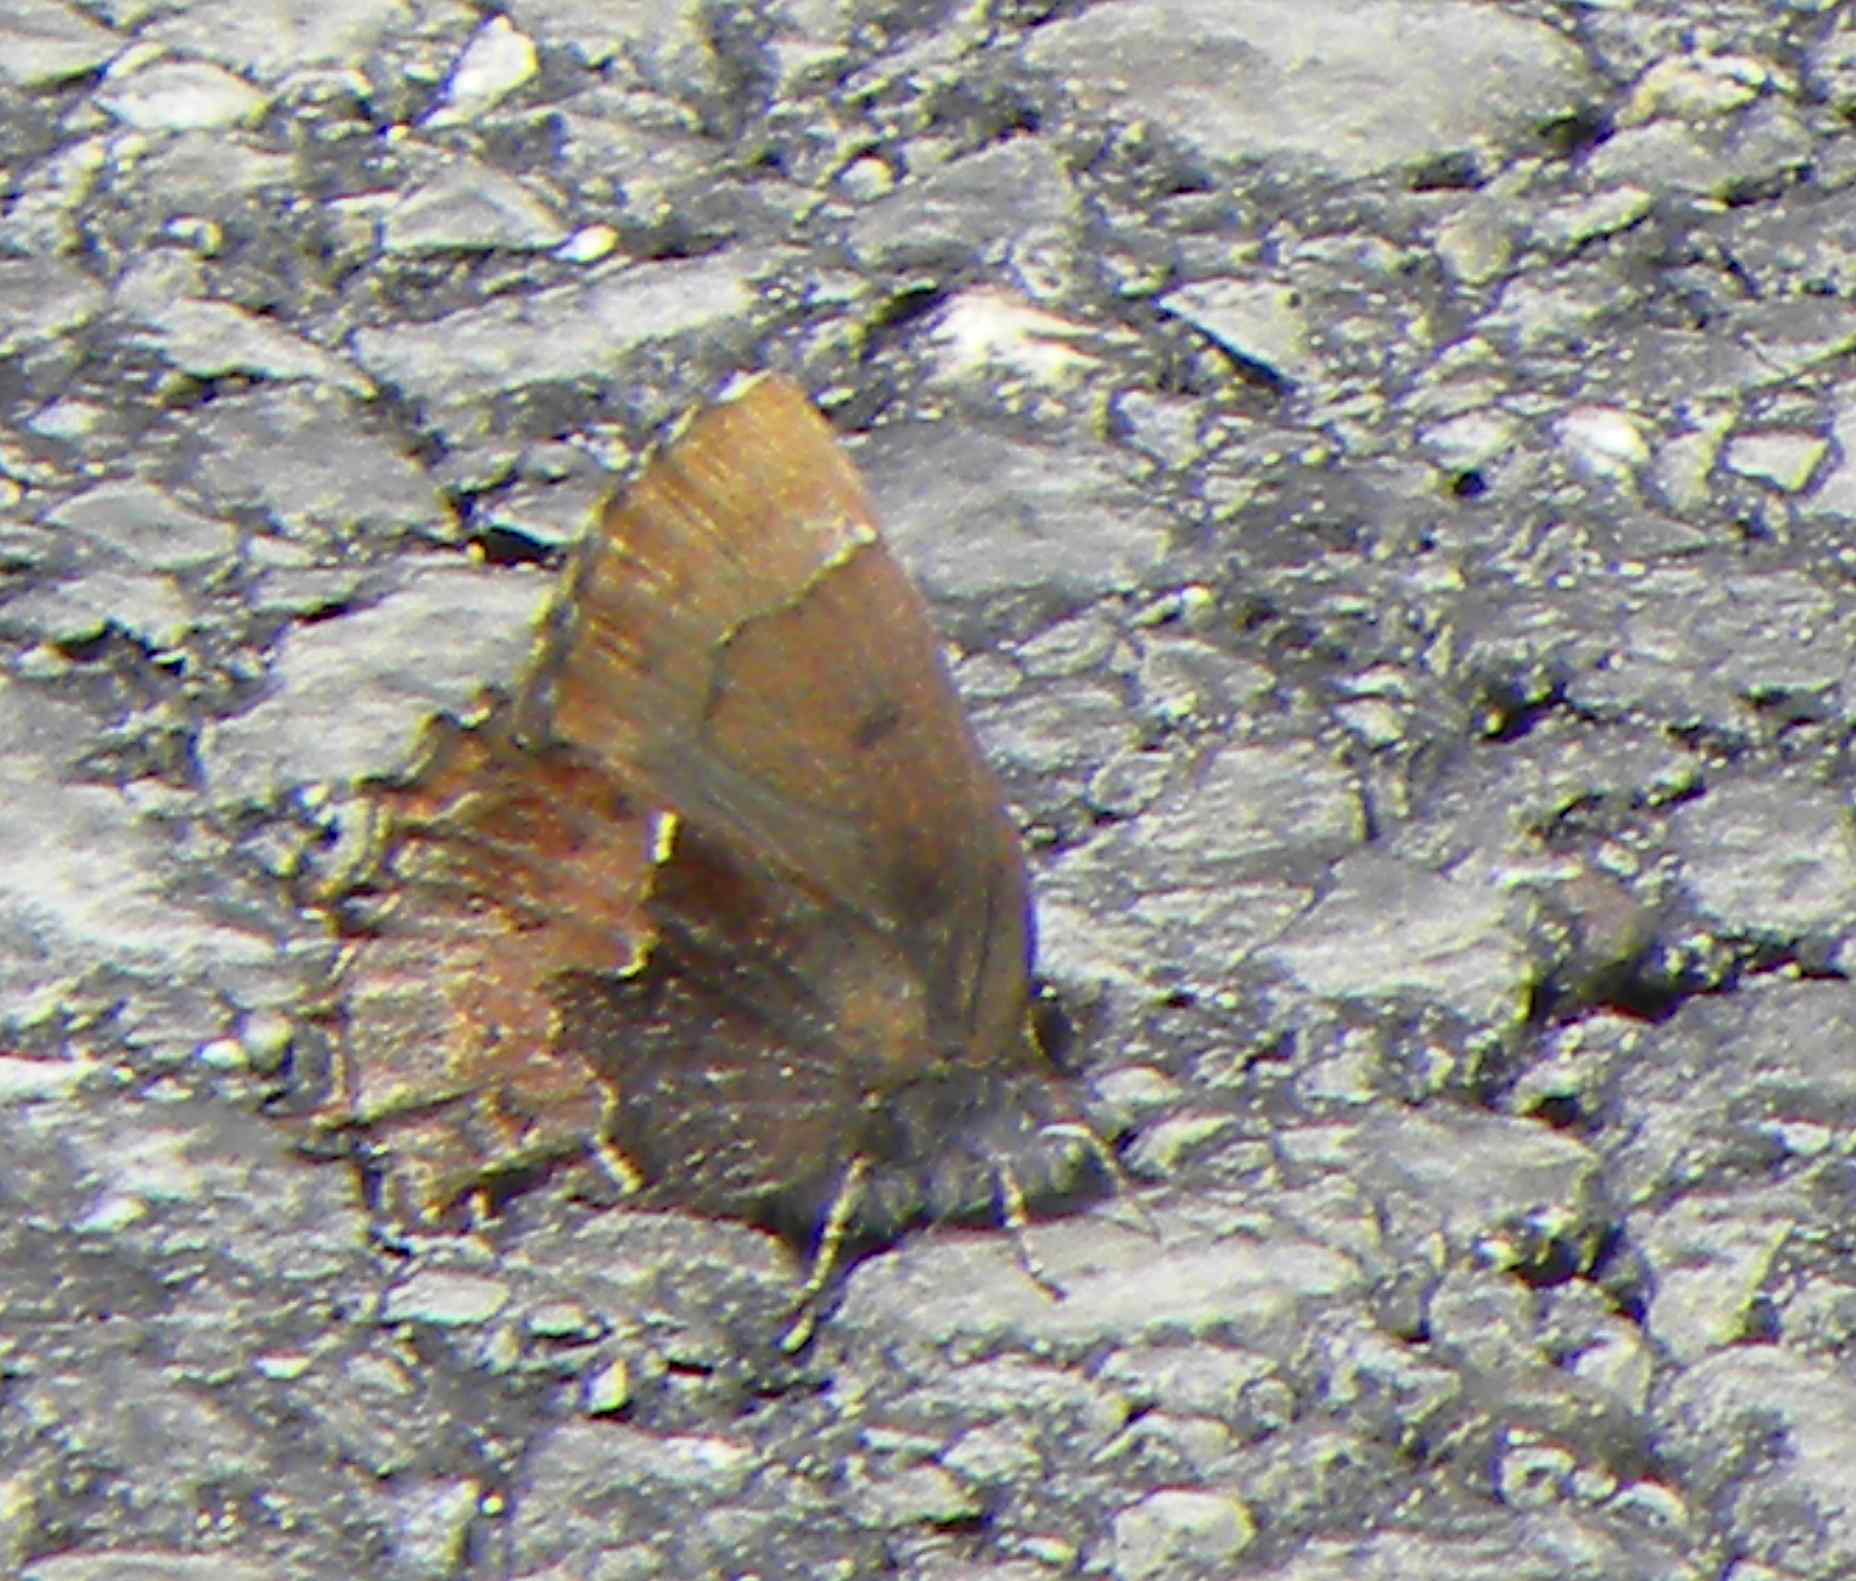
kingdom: Animalia
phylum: Arthropoda
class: Insecta
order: Lepidoptera
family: Lycaenidae
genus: Incisalia
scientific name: Incisalia henrici
